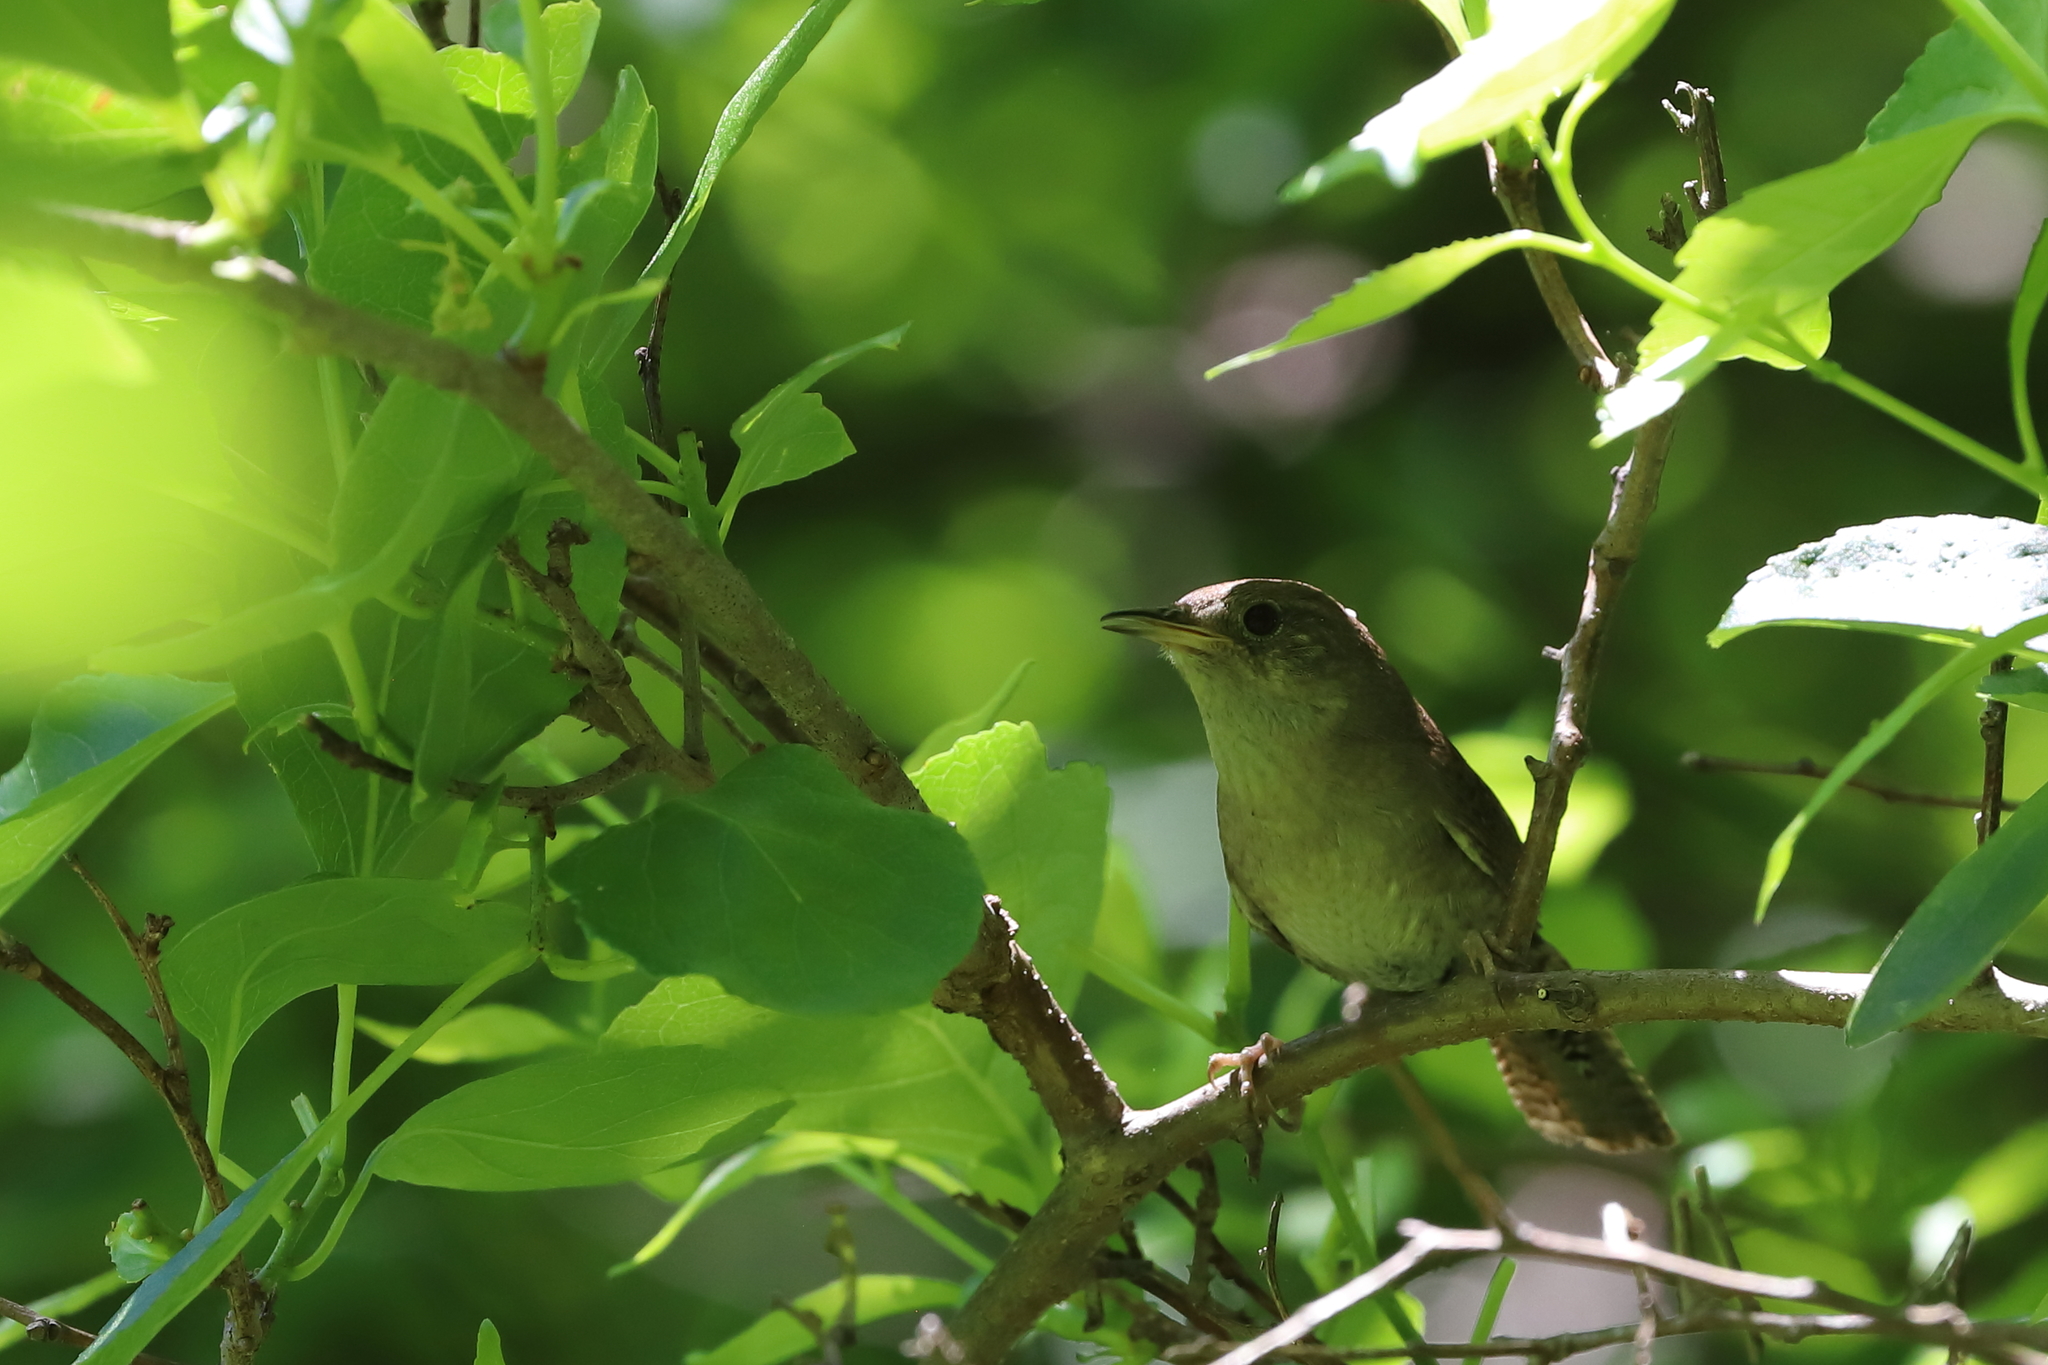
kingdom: Animalia
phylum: Chordata
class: Aves
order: Passeriformes
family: Troglodytidae
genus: Troglodytes
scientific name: Troglodytes aedon
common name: House wren
